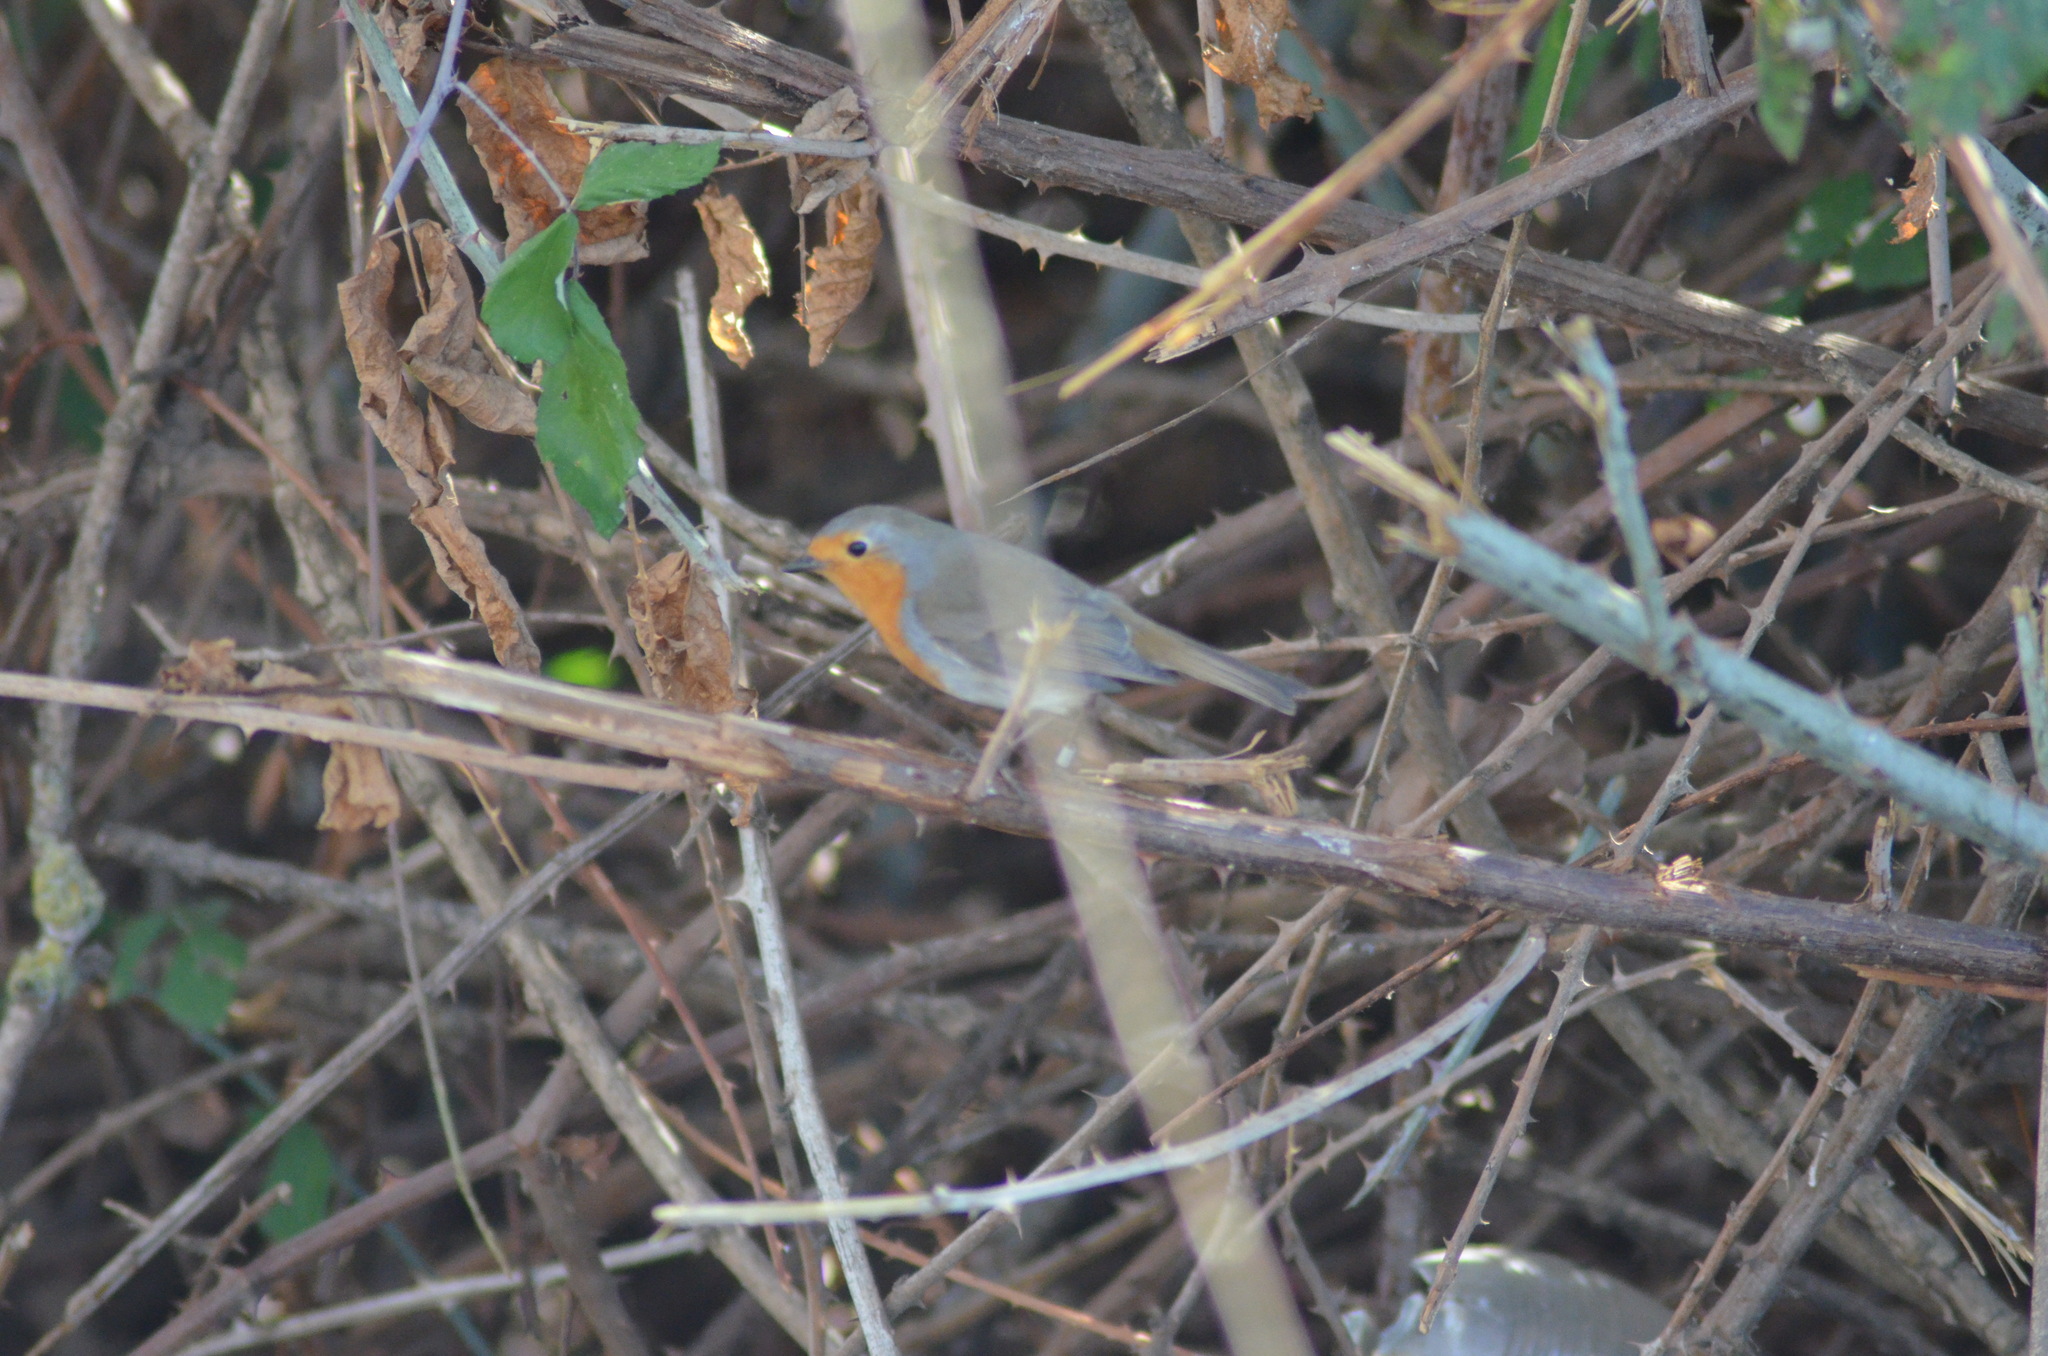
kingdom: Animalia
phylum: Chordata
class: Aves
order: Passeriformes
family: Muscicapidae
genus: Erithacus
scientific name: Erithacus rubecula
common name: European robin
